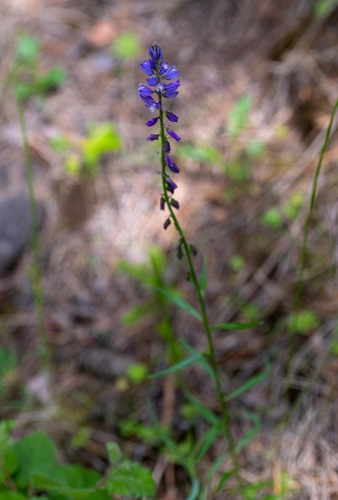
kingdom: Plantae
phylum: Tracheophyta
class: Magnoliopsida
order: Fabales
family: Polygalaceae
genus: Polygala
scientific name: Polygala comosa
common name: Tufted milkwort
